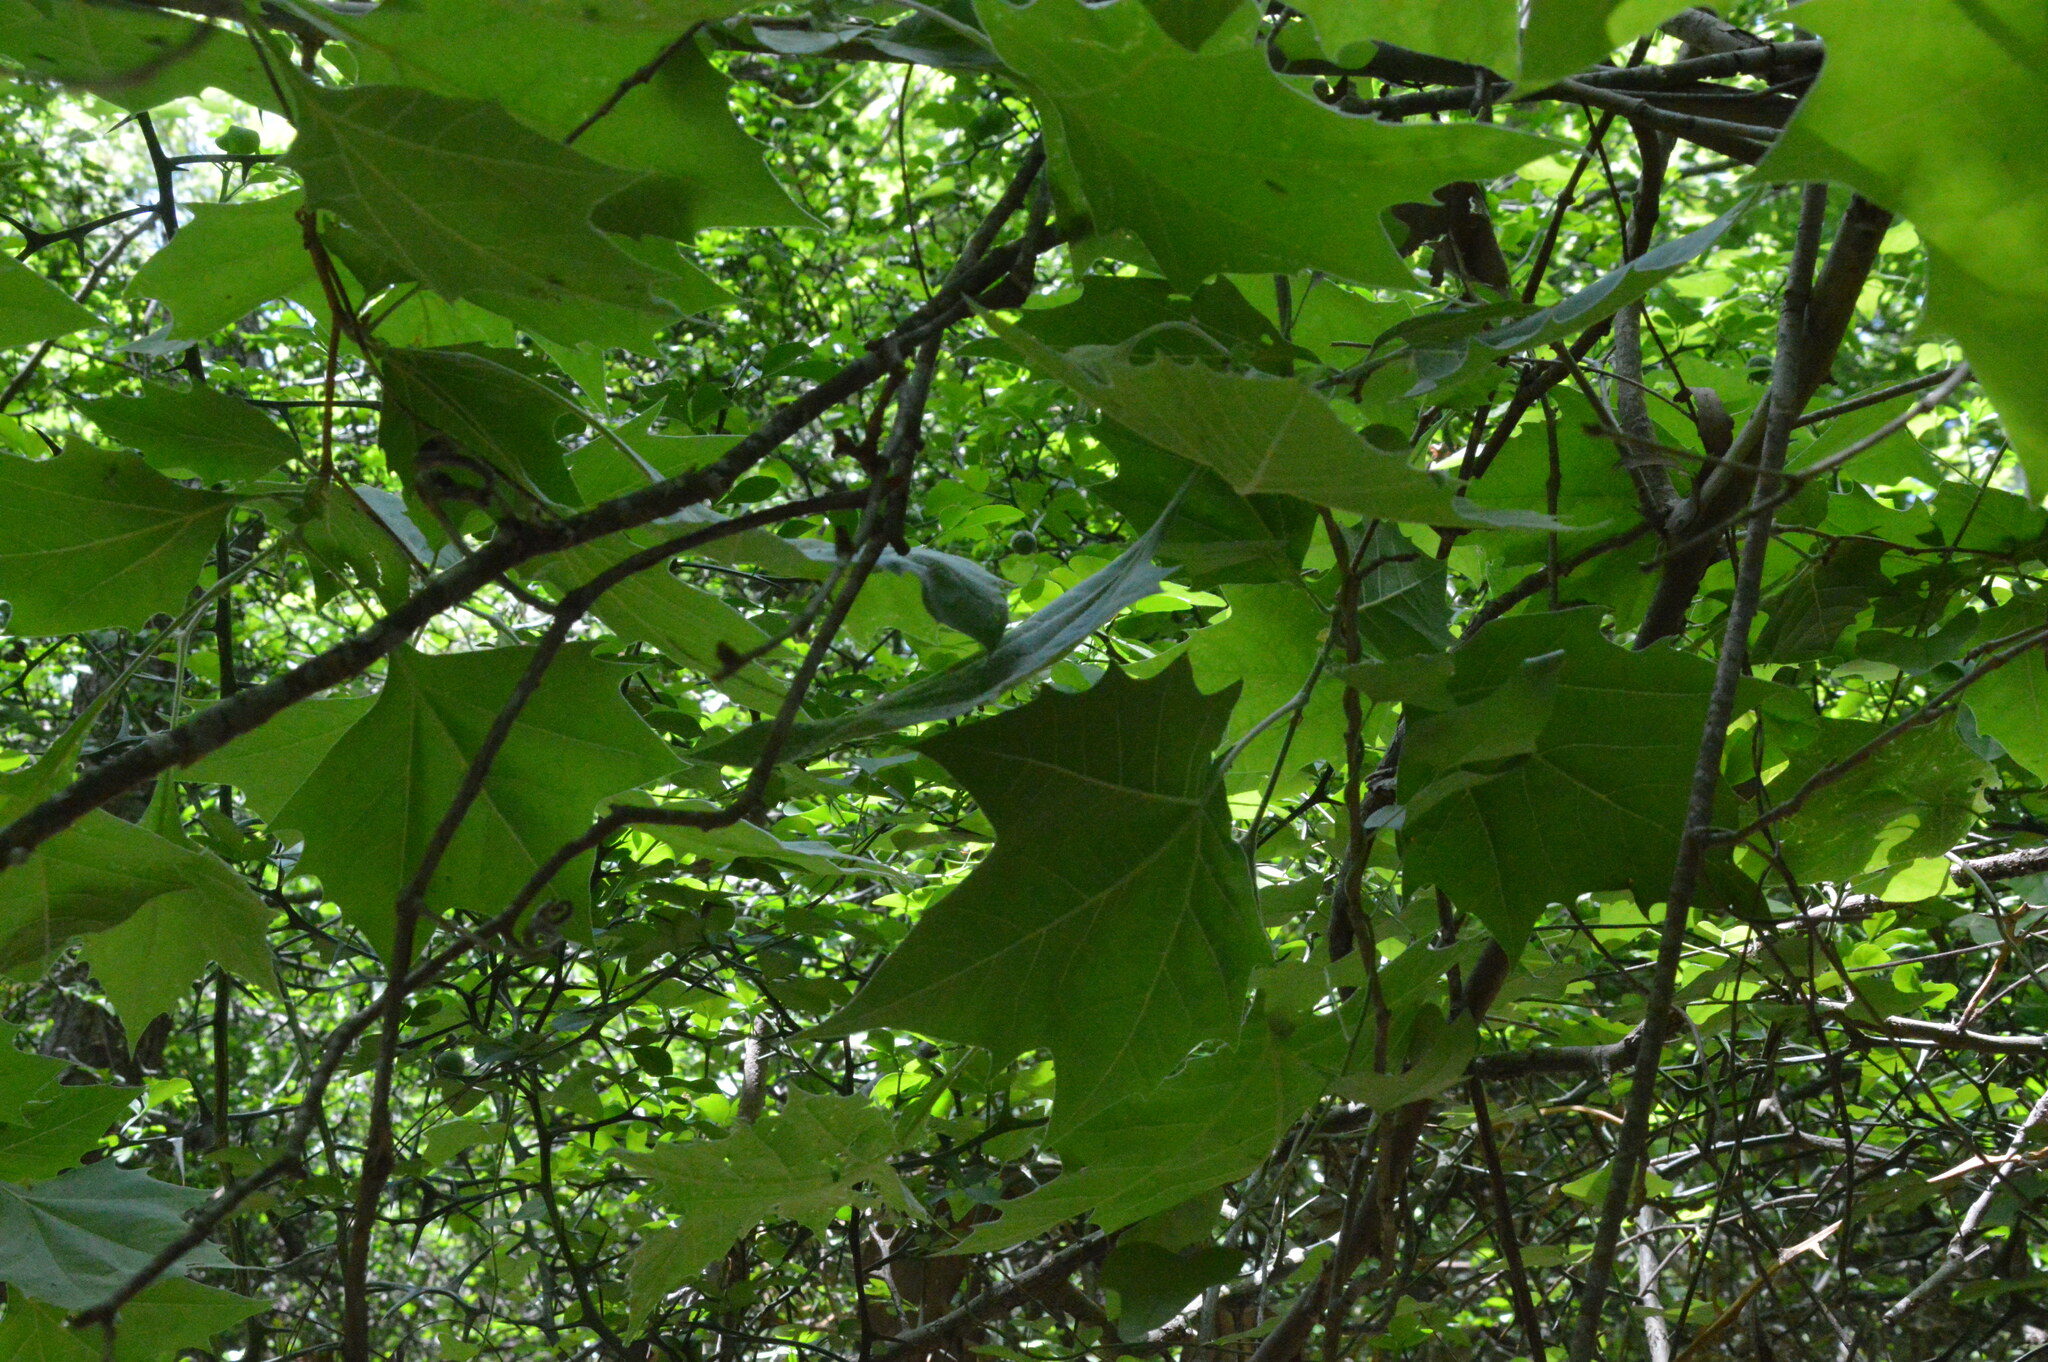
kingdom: Plantae
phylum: Tracheophyta
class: Magnoliopsida
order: Proteales
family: Platanaceae
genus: Platanus
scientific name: Platanus occidentalis
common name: American sycamore
